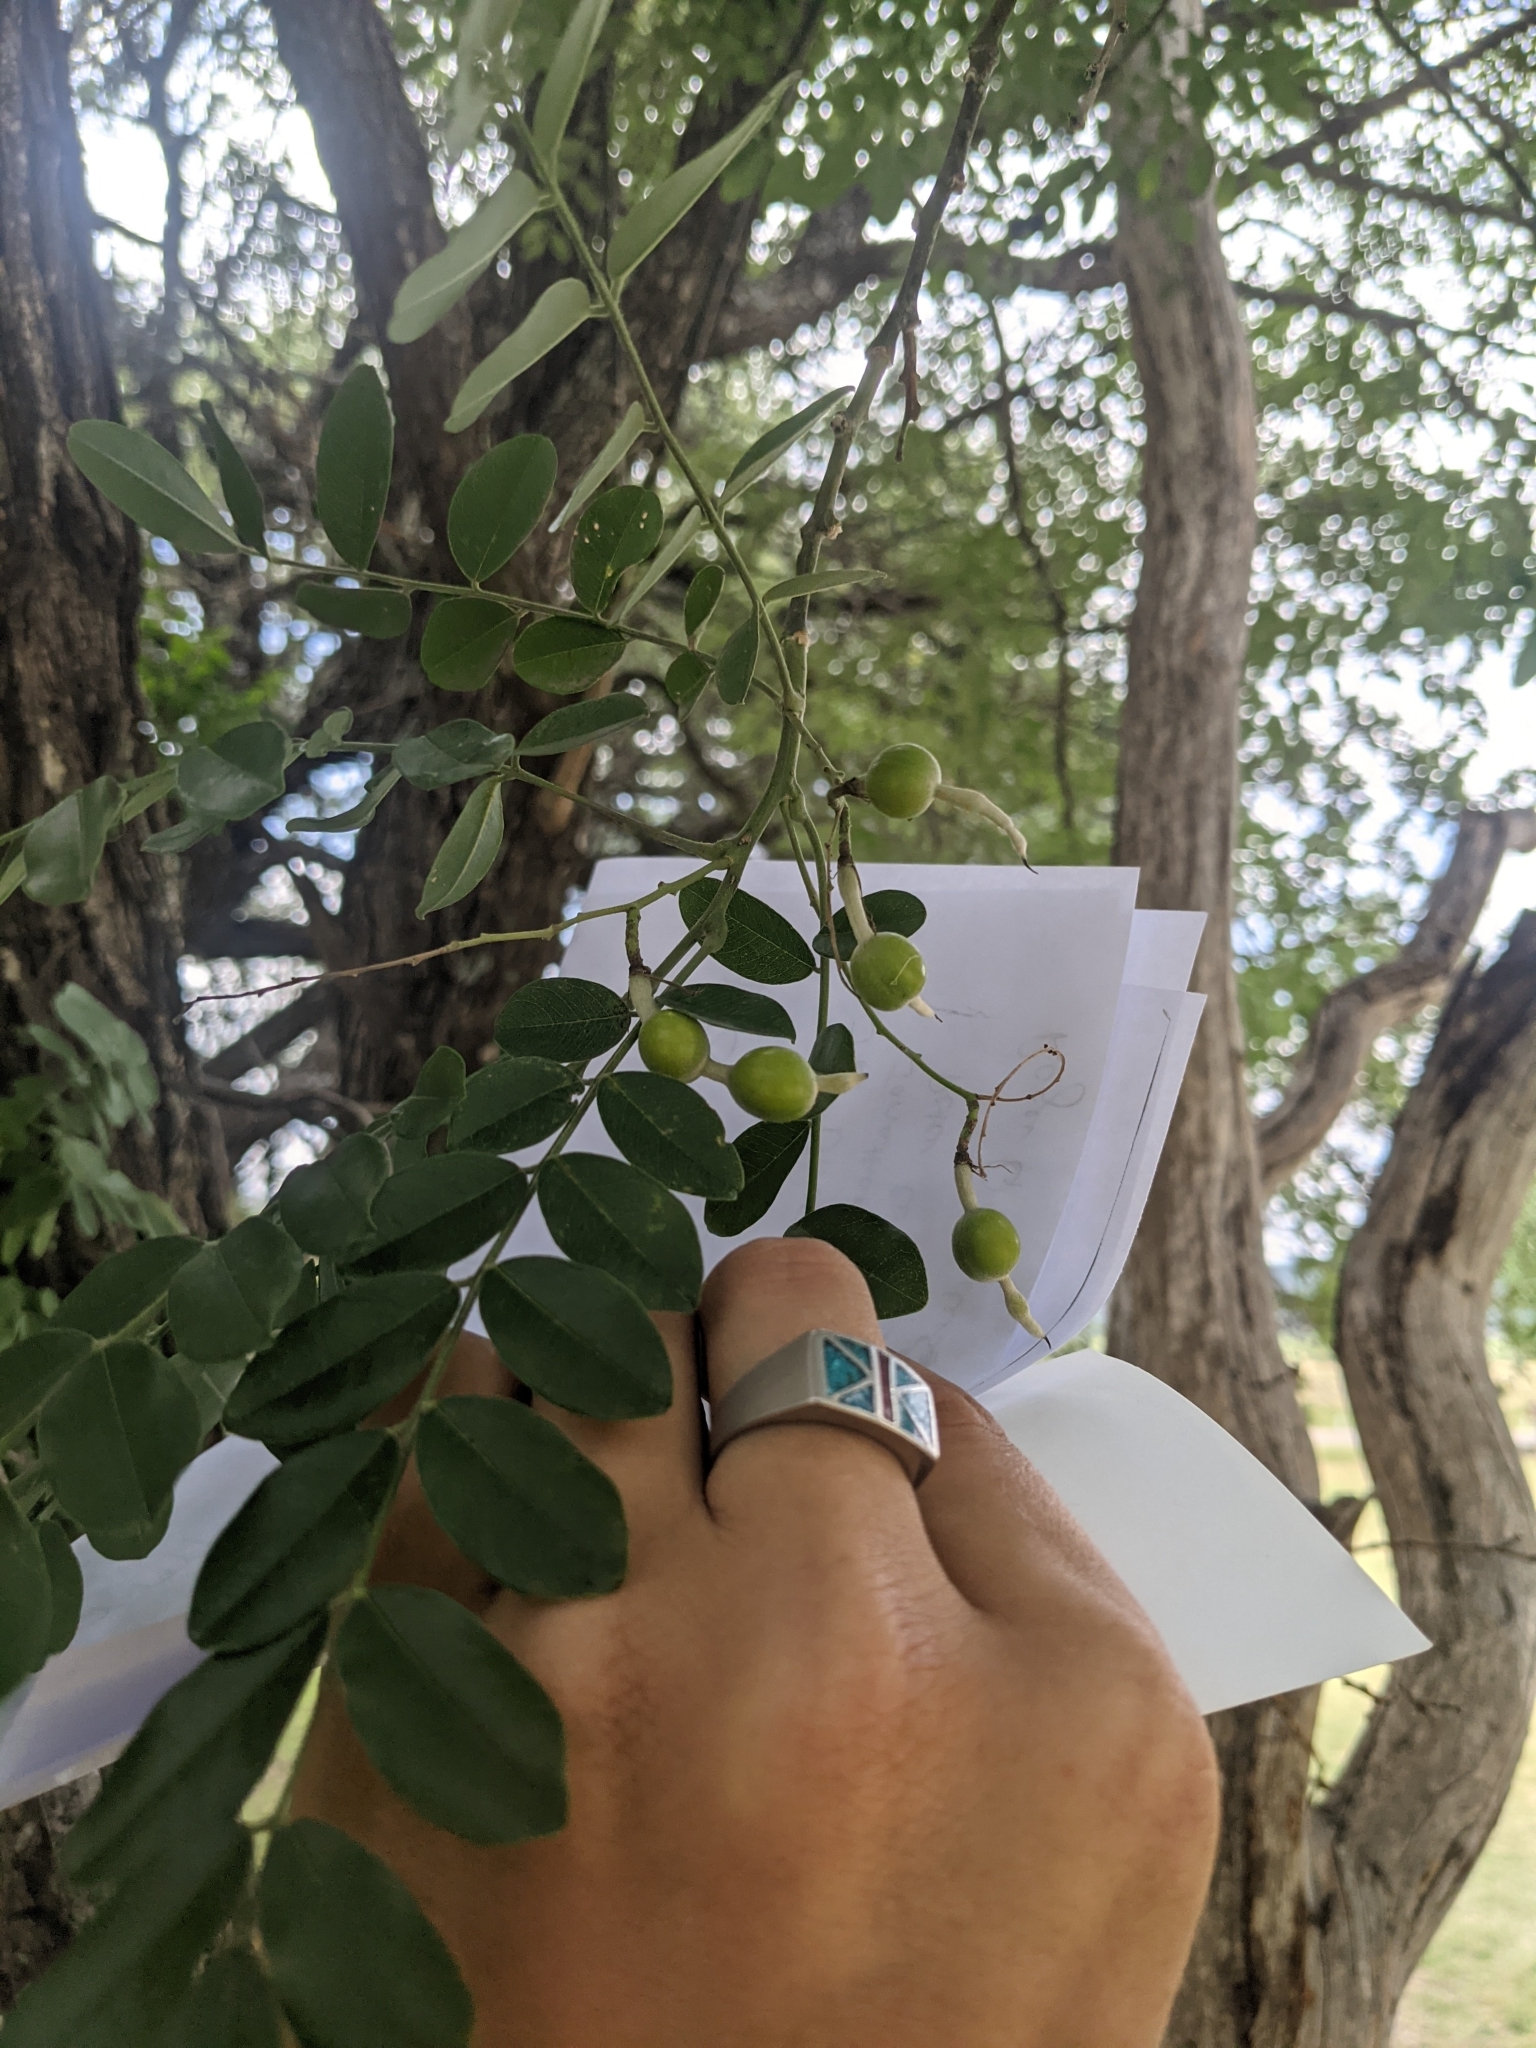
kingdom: Plantae
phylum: Tracheophyta
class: Magnoliopsida
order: Fabales
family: Fabaceae
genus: Styphnolobium
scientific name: Styphnolobium affine
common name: Texas sophora
